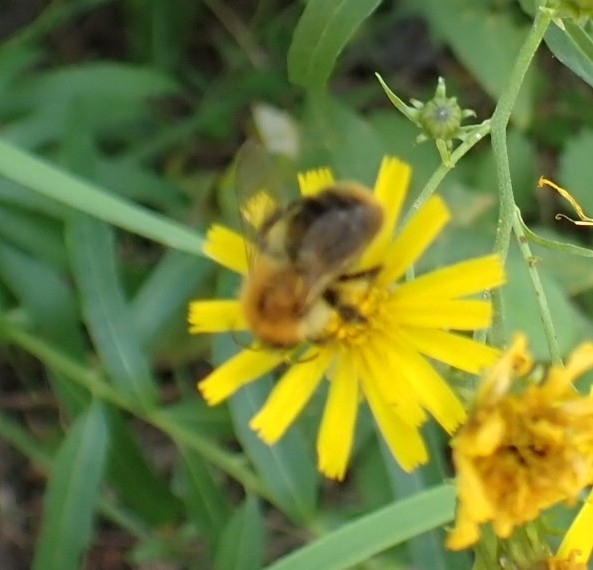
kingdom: Animalia
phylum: Arthropoda
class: Insecta
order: Hymenoptera
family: Apidae
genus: Bombus
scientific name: Bombus pascuorum
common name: Common carder bee
